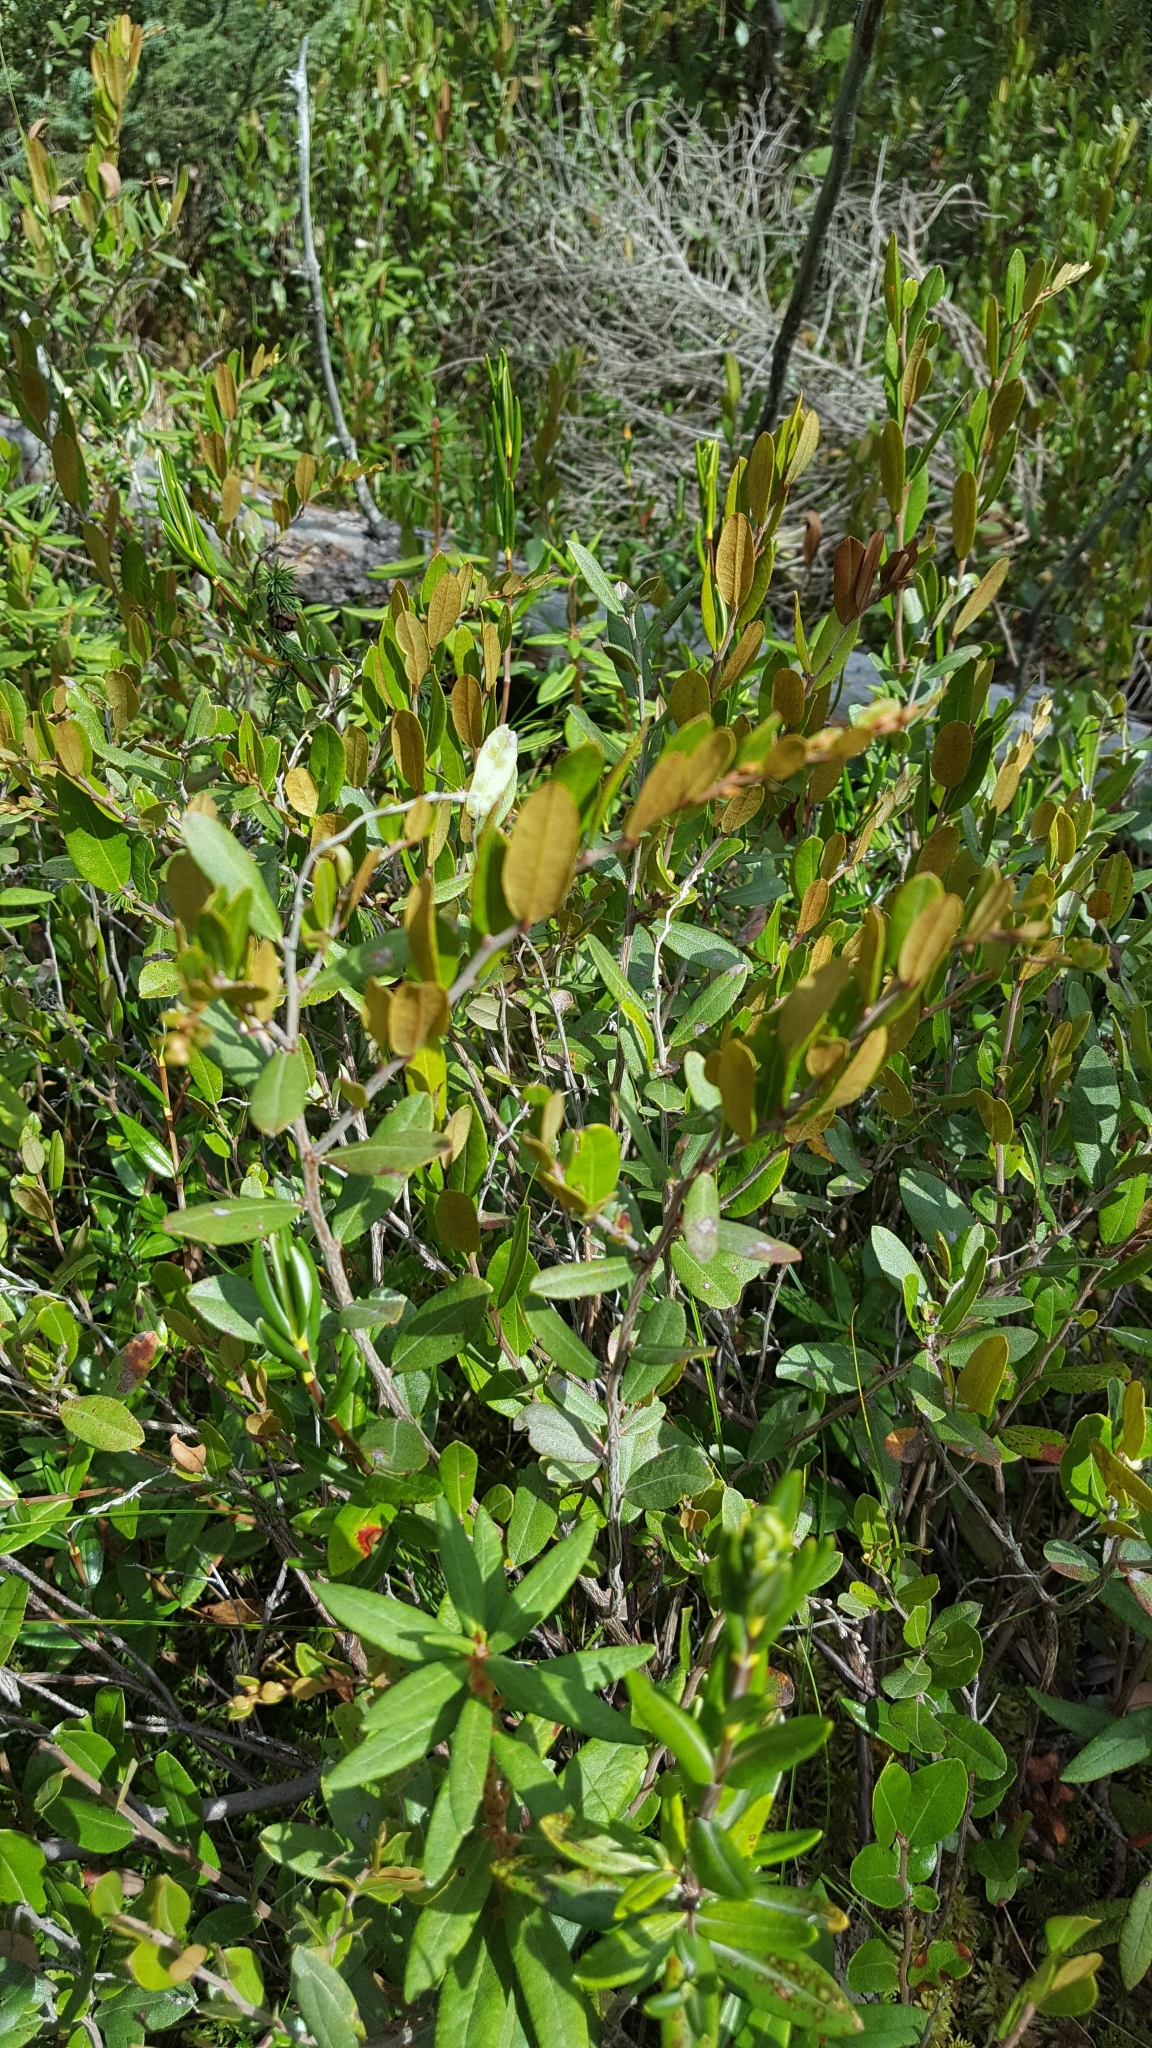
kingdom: Plantae
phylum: Tracheophyta
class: Magnoliopsida
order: Ericales
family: Ericaceae
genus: Chamaedaphne
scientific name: Chamaedaphne calyculata
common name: Leatherleaf
